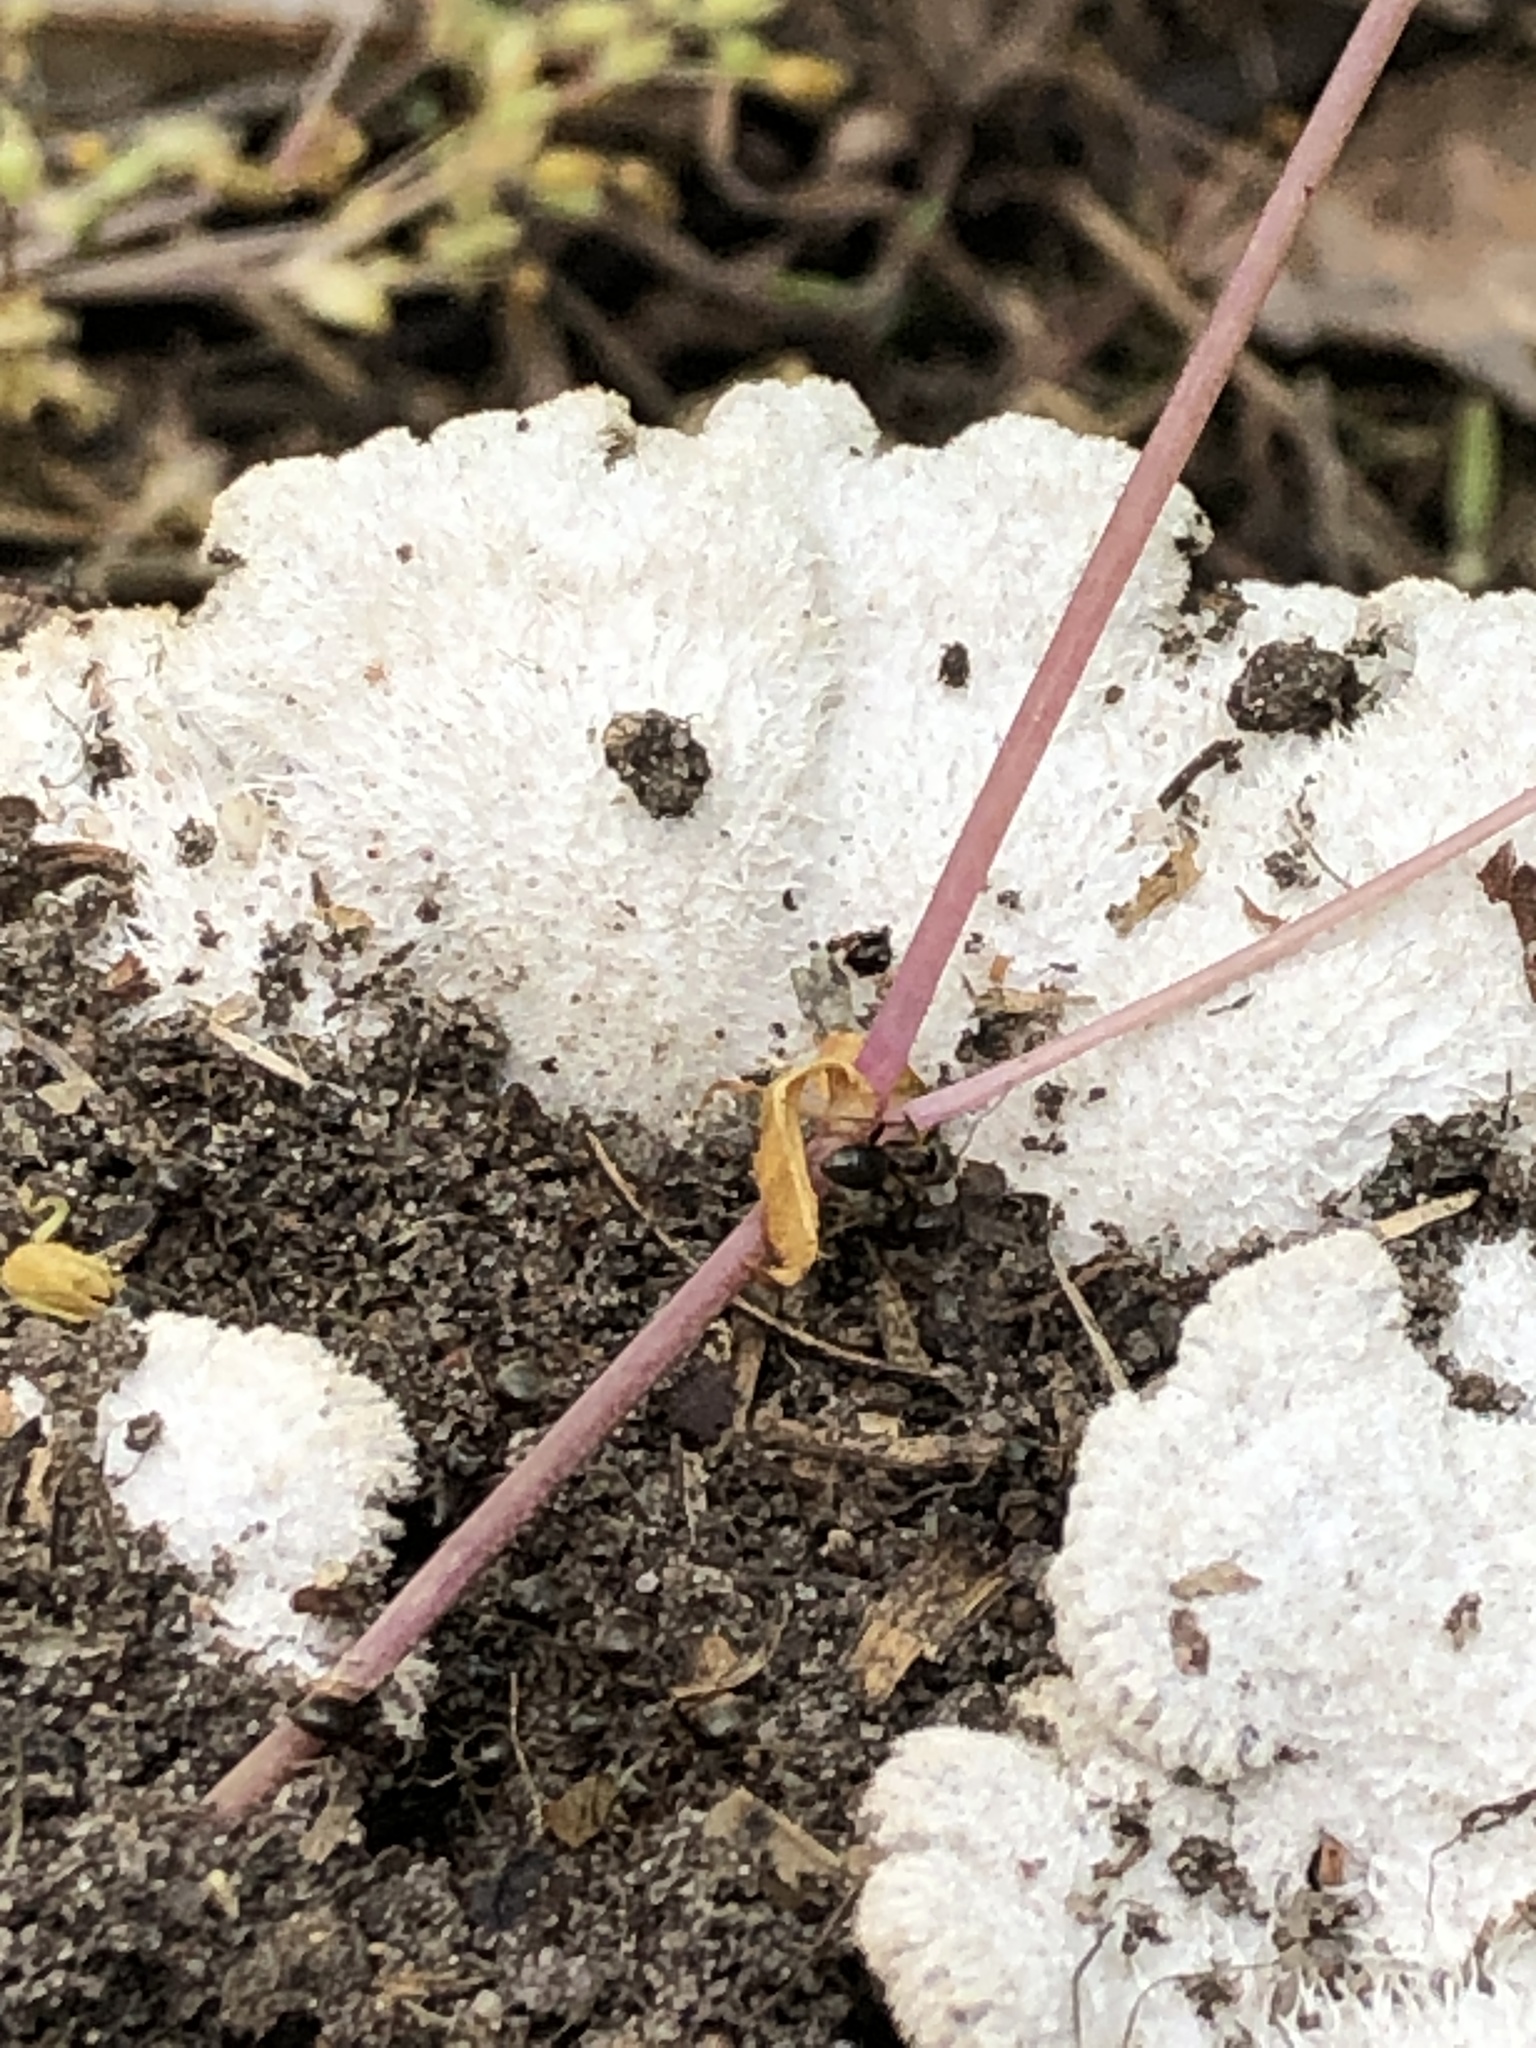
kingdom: Fungi
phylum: Basidiomycota
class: Agaricomycetes
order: Agaricales
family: Schizophyllaceae
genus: Schizophyllum
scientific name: Schizophyllum commune
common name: Common porecrust
